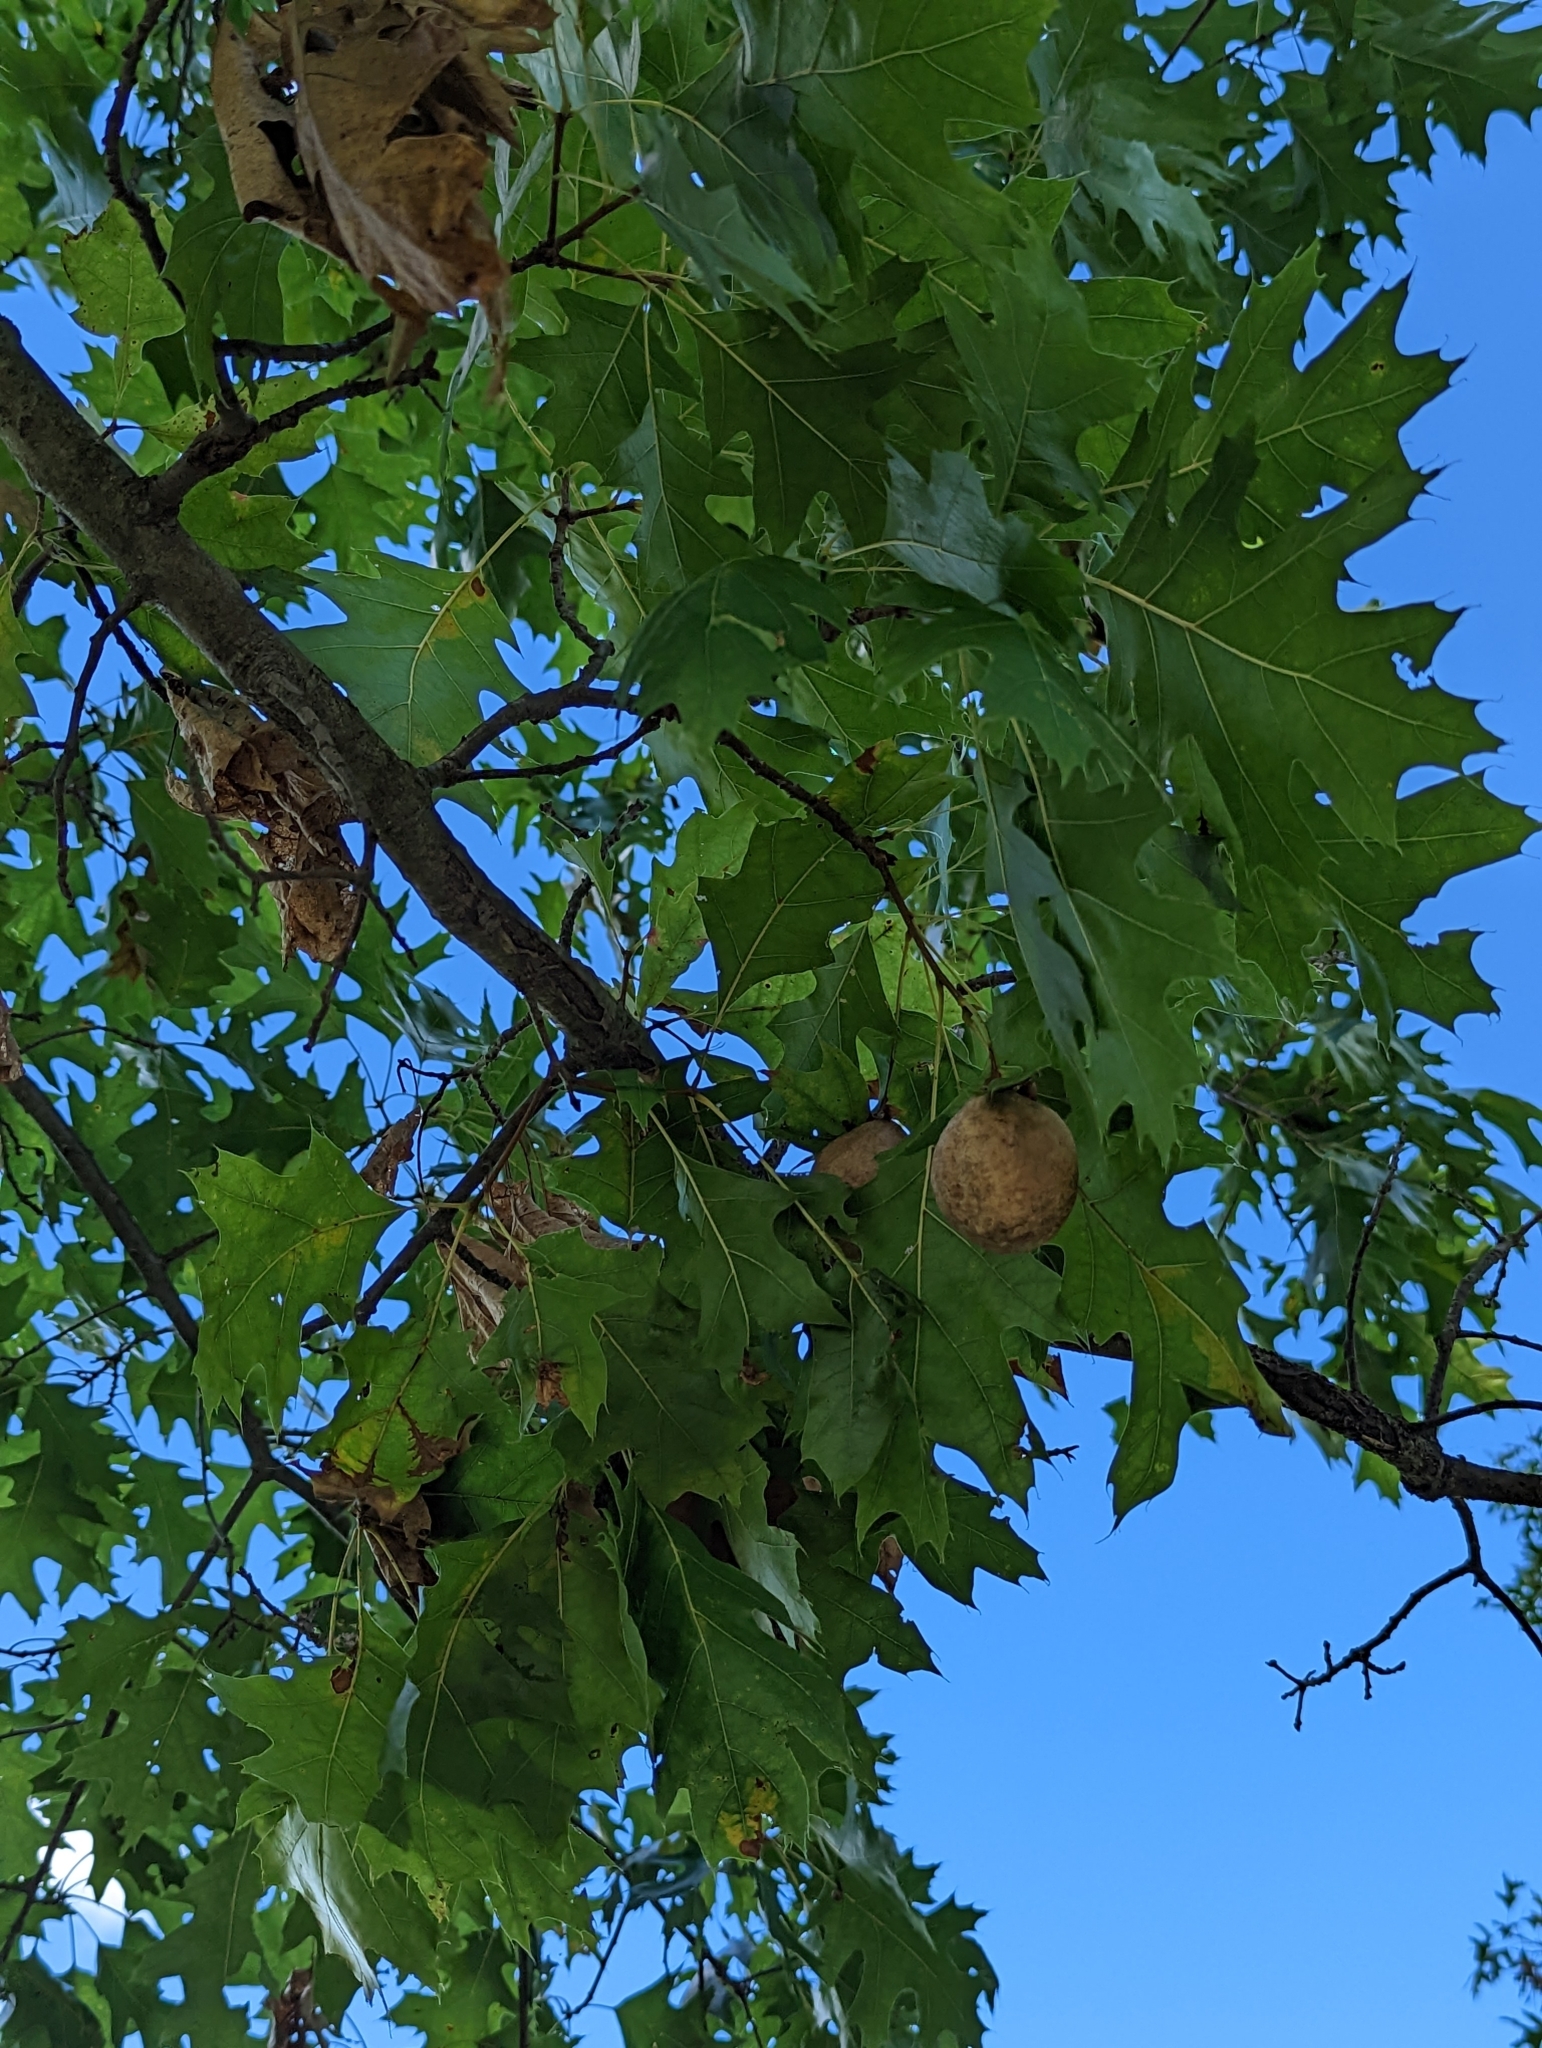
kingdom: Animalia
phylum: Arthropoda
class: Insecta
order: Hymenoptera
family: Cynipidae
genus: Amphibolips
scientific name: Amphibolips
